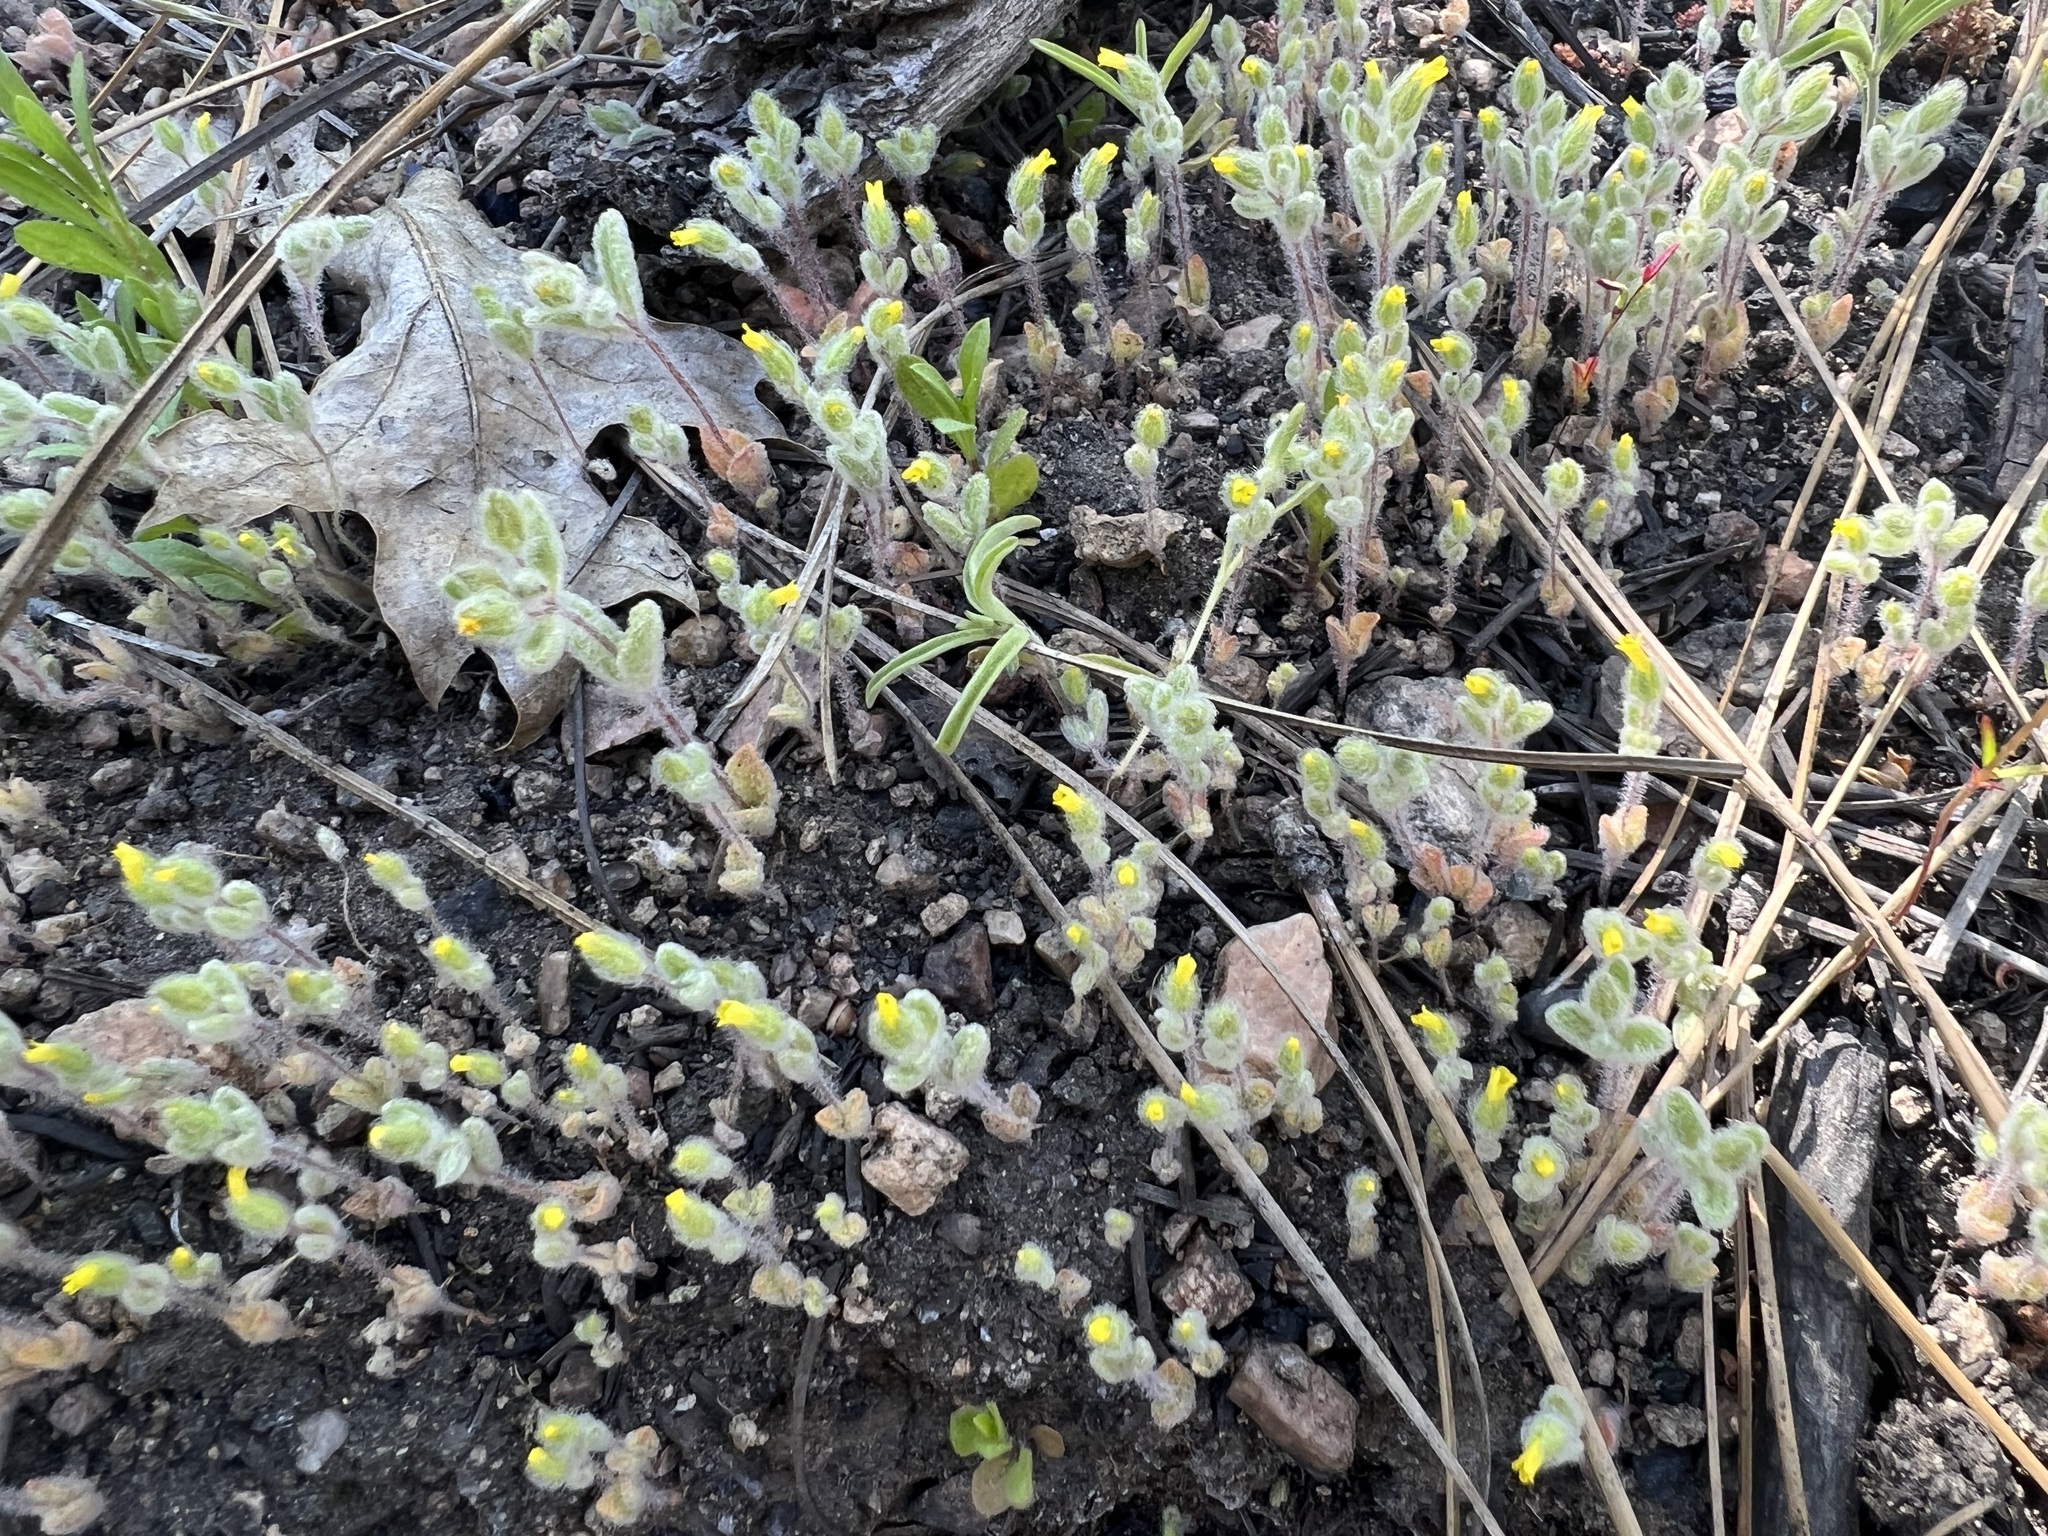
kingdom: Plantae
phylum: Tracheophyta
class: Magnoliopsida
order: Lamiales
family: Phrymaceae
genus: Mimetanthe
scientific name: Mimetanthe pilosa
